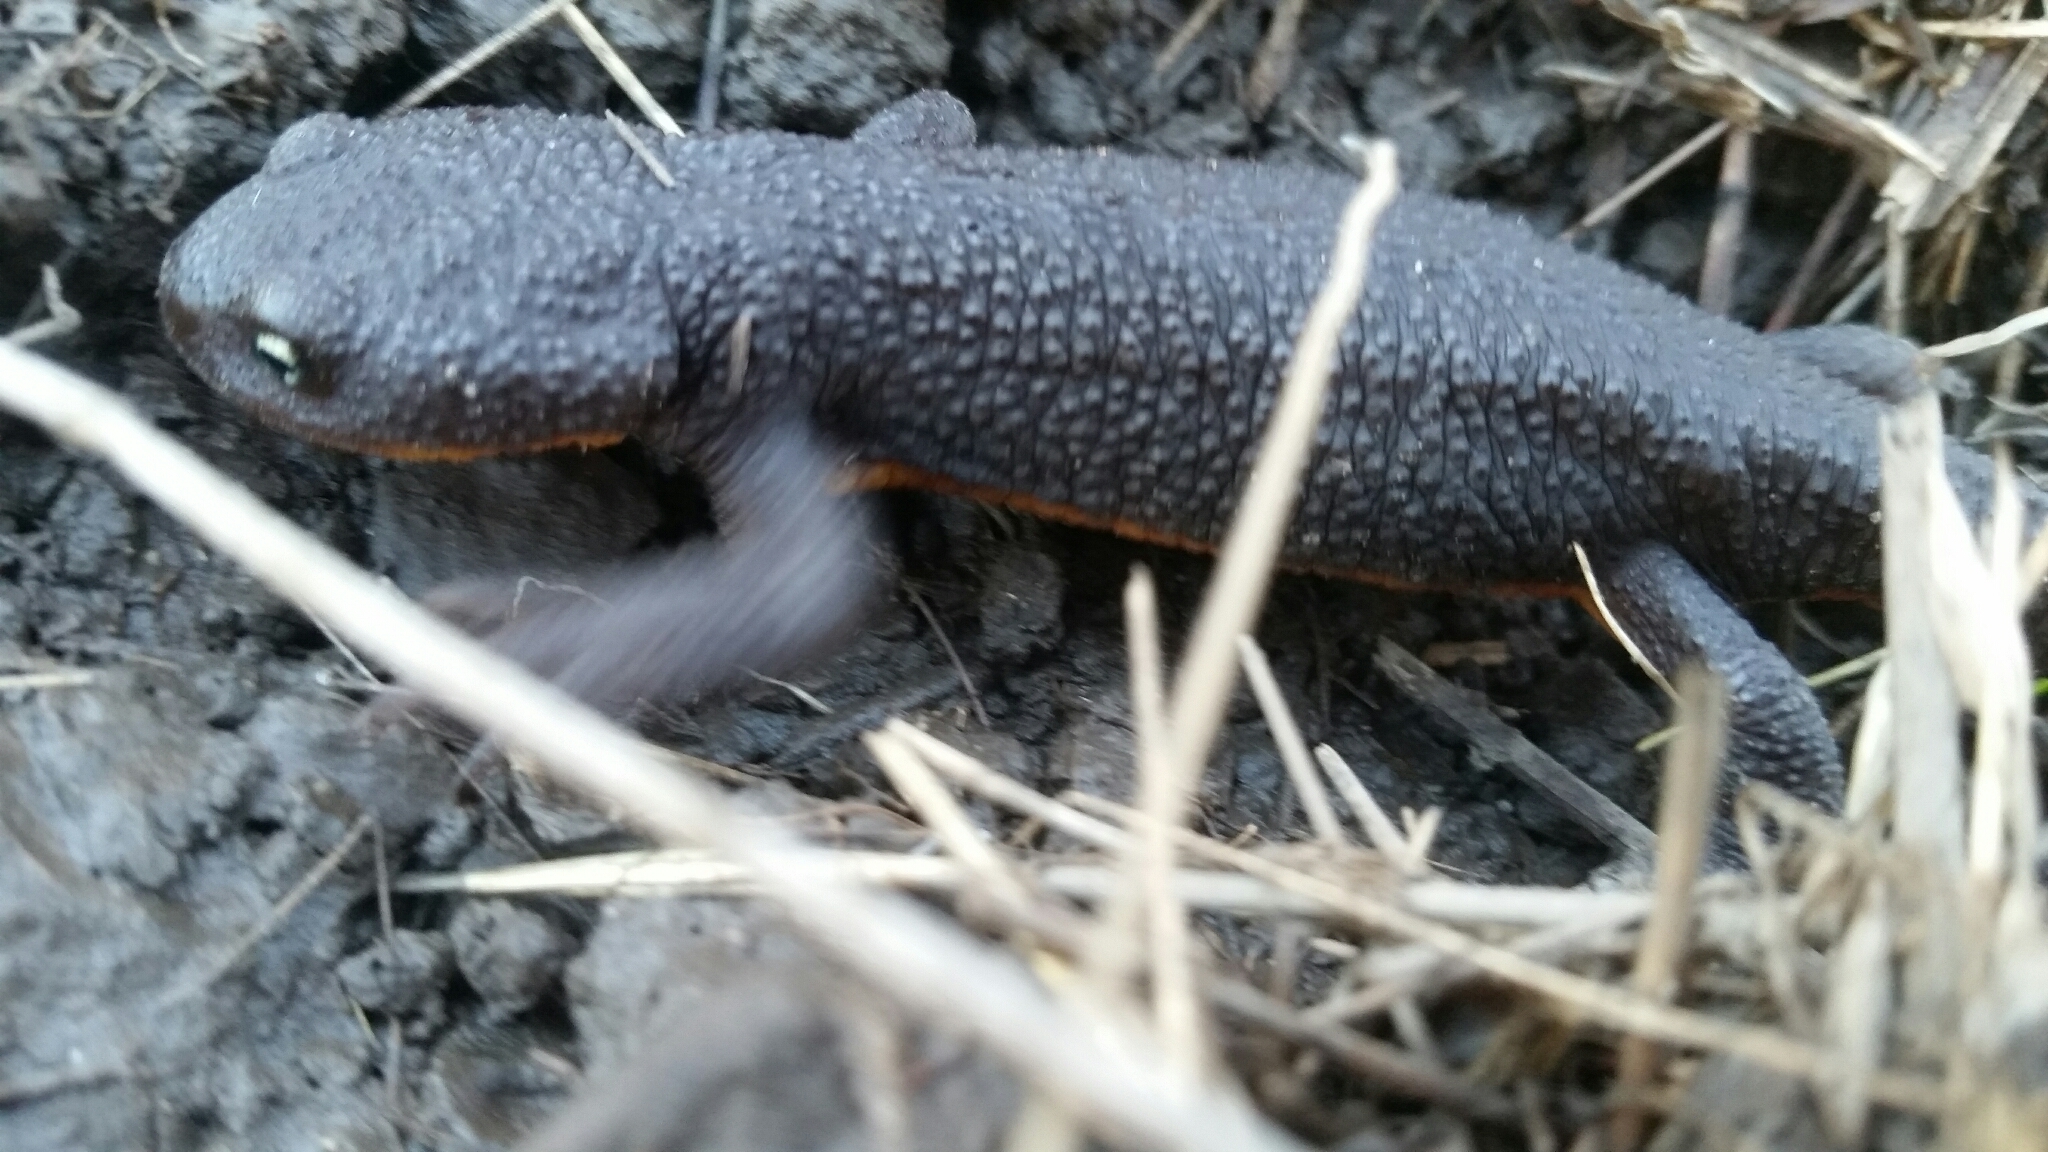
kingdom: Animalia
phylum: Chordata
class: Amphibia
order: Caudata
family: Salamandridae
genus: Taricha
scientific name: Taricha granulosa
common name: Roughskin newt
